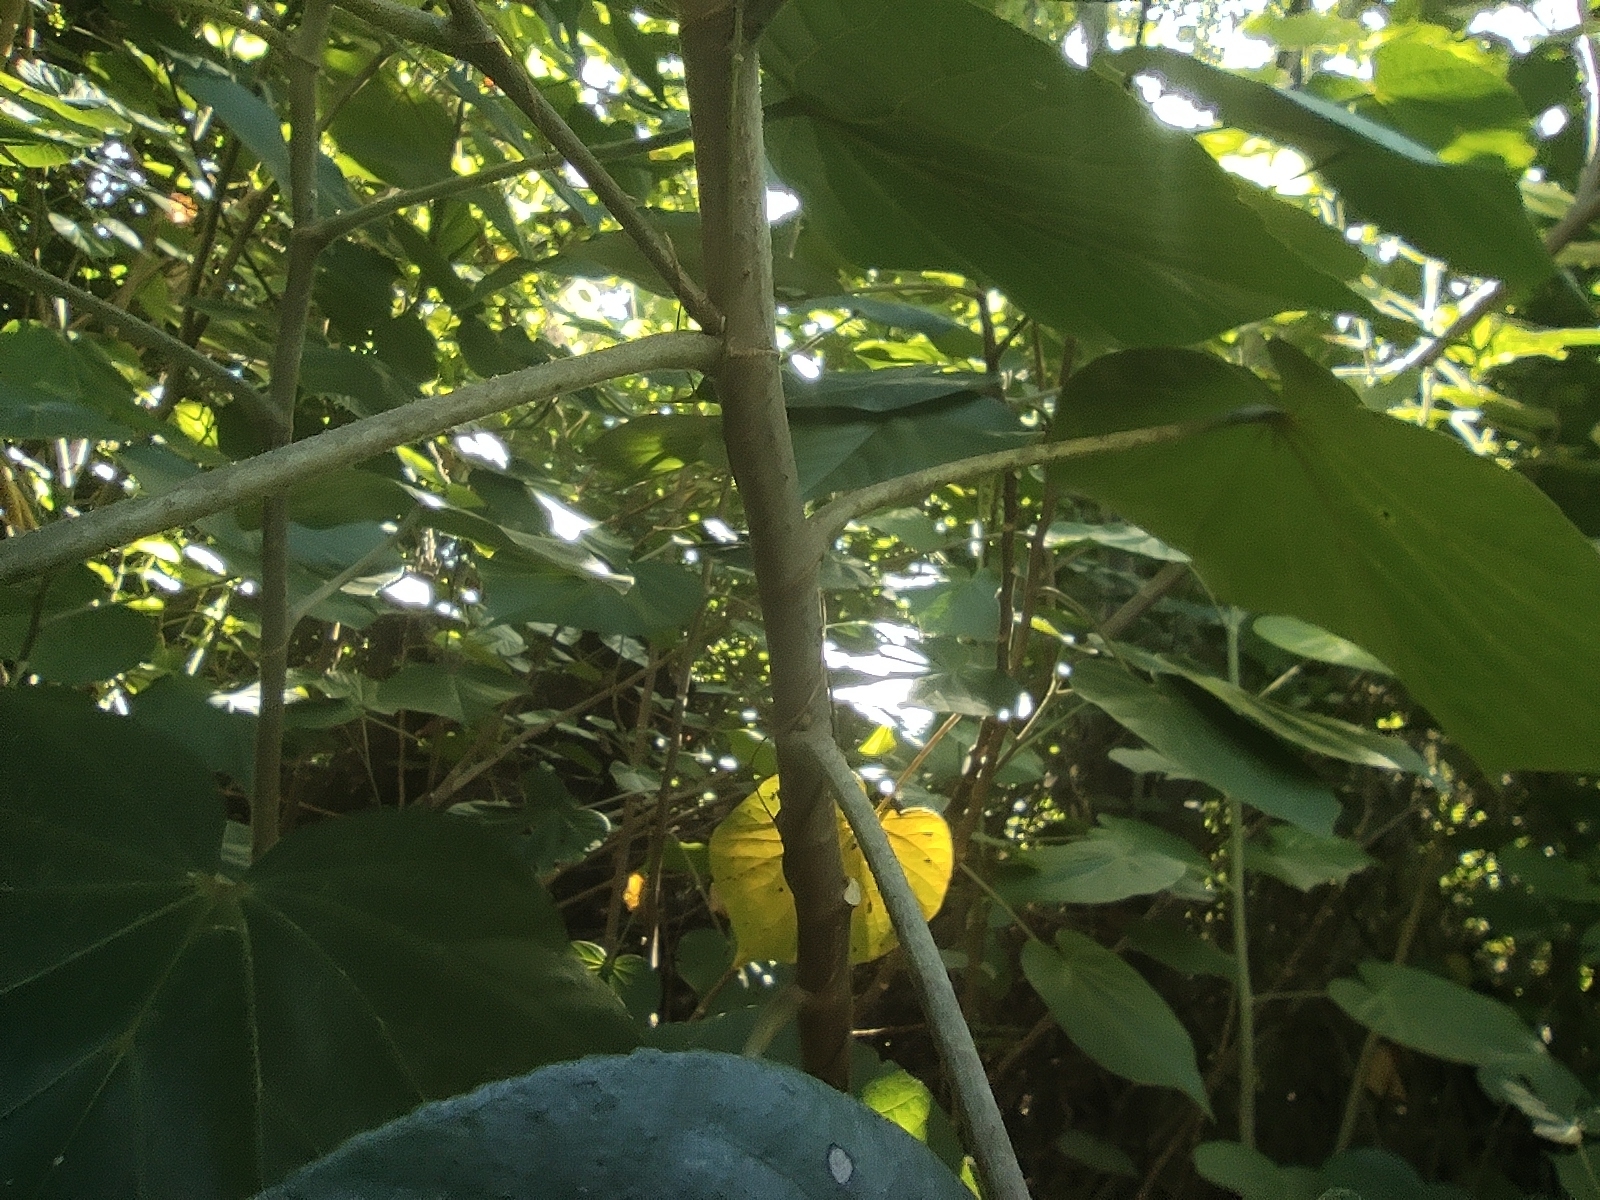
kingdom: Plantae
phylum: Tracheophyta
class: Magnoliopsida
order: Malvales
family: Malvaceae
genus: Talipariti
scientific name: Talipariti tiliaceum
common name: Sea hibiscus
